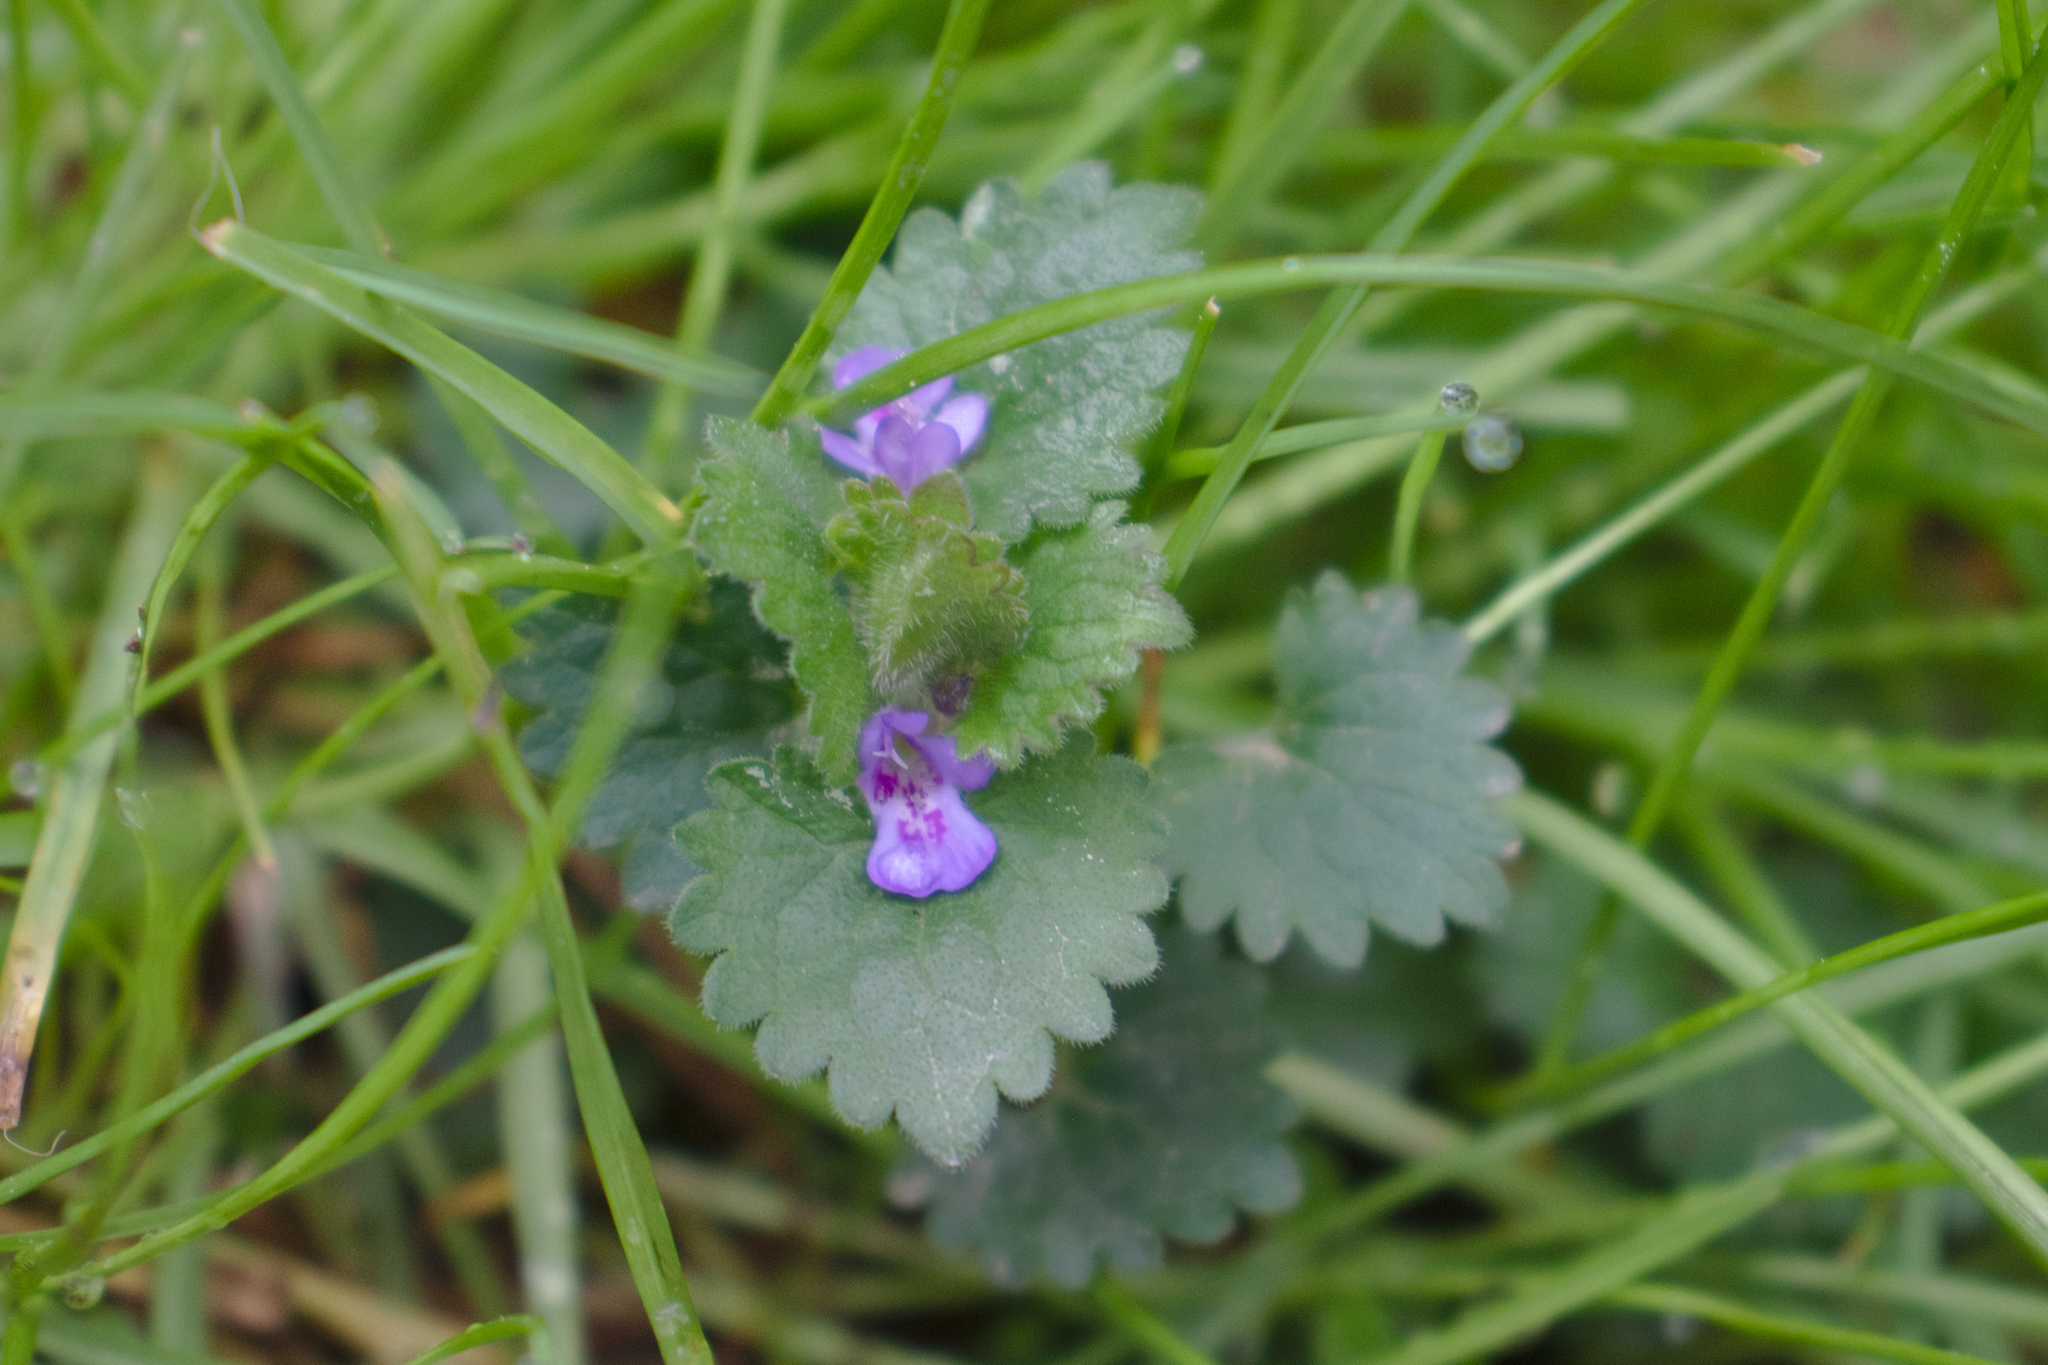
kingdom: Plantae
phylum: Tracheophyta
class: Magnoliopsida
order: Lamiales
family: Lamiaceae
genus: Glechoma
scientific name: Glechoma hederacea
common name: Ground ivy
